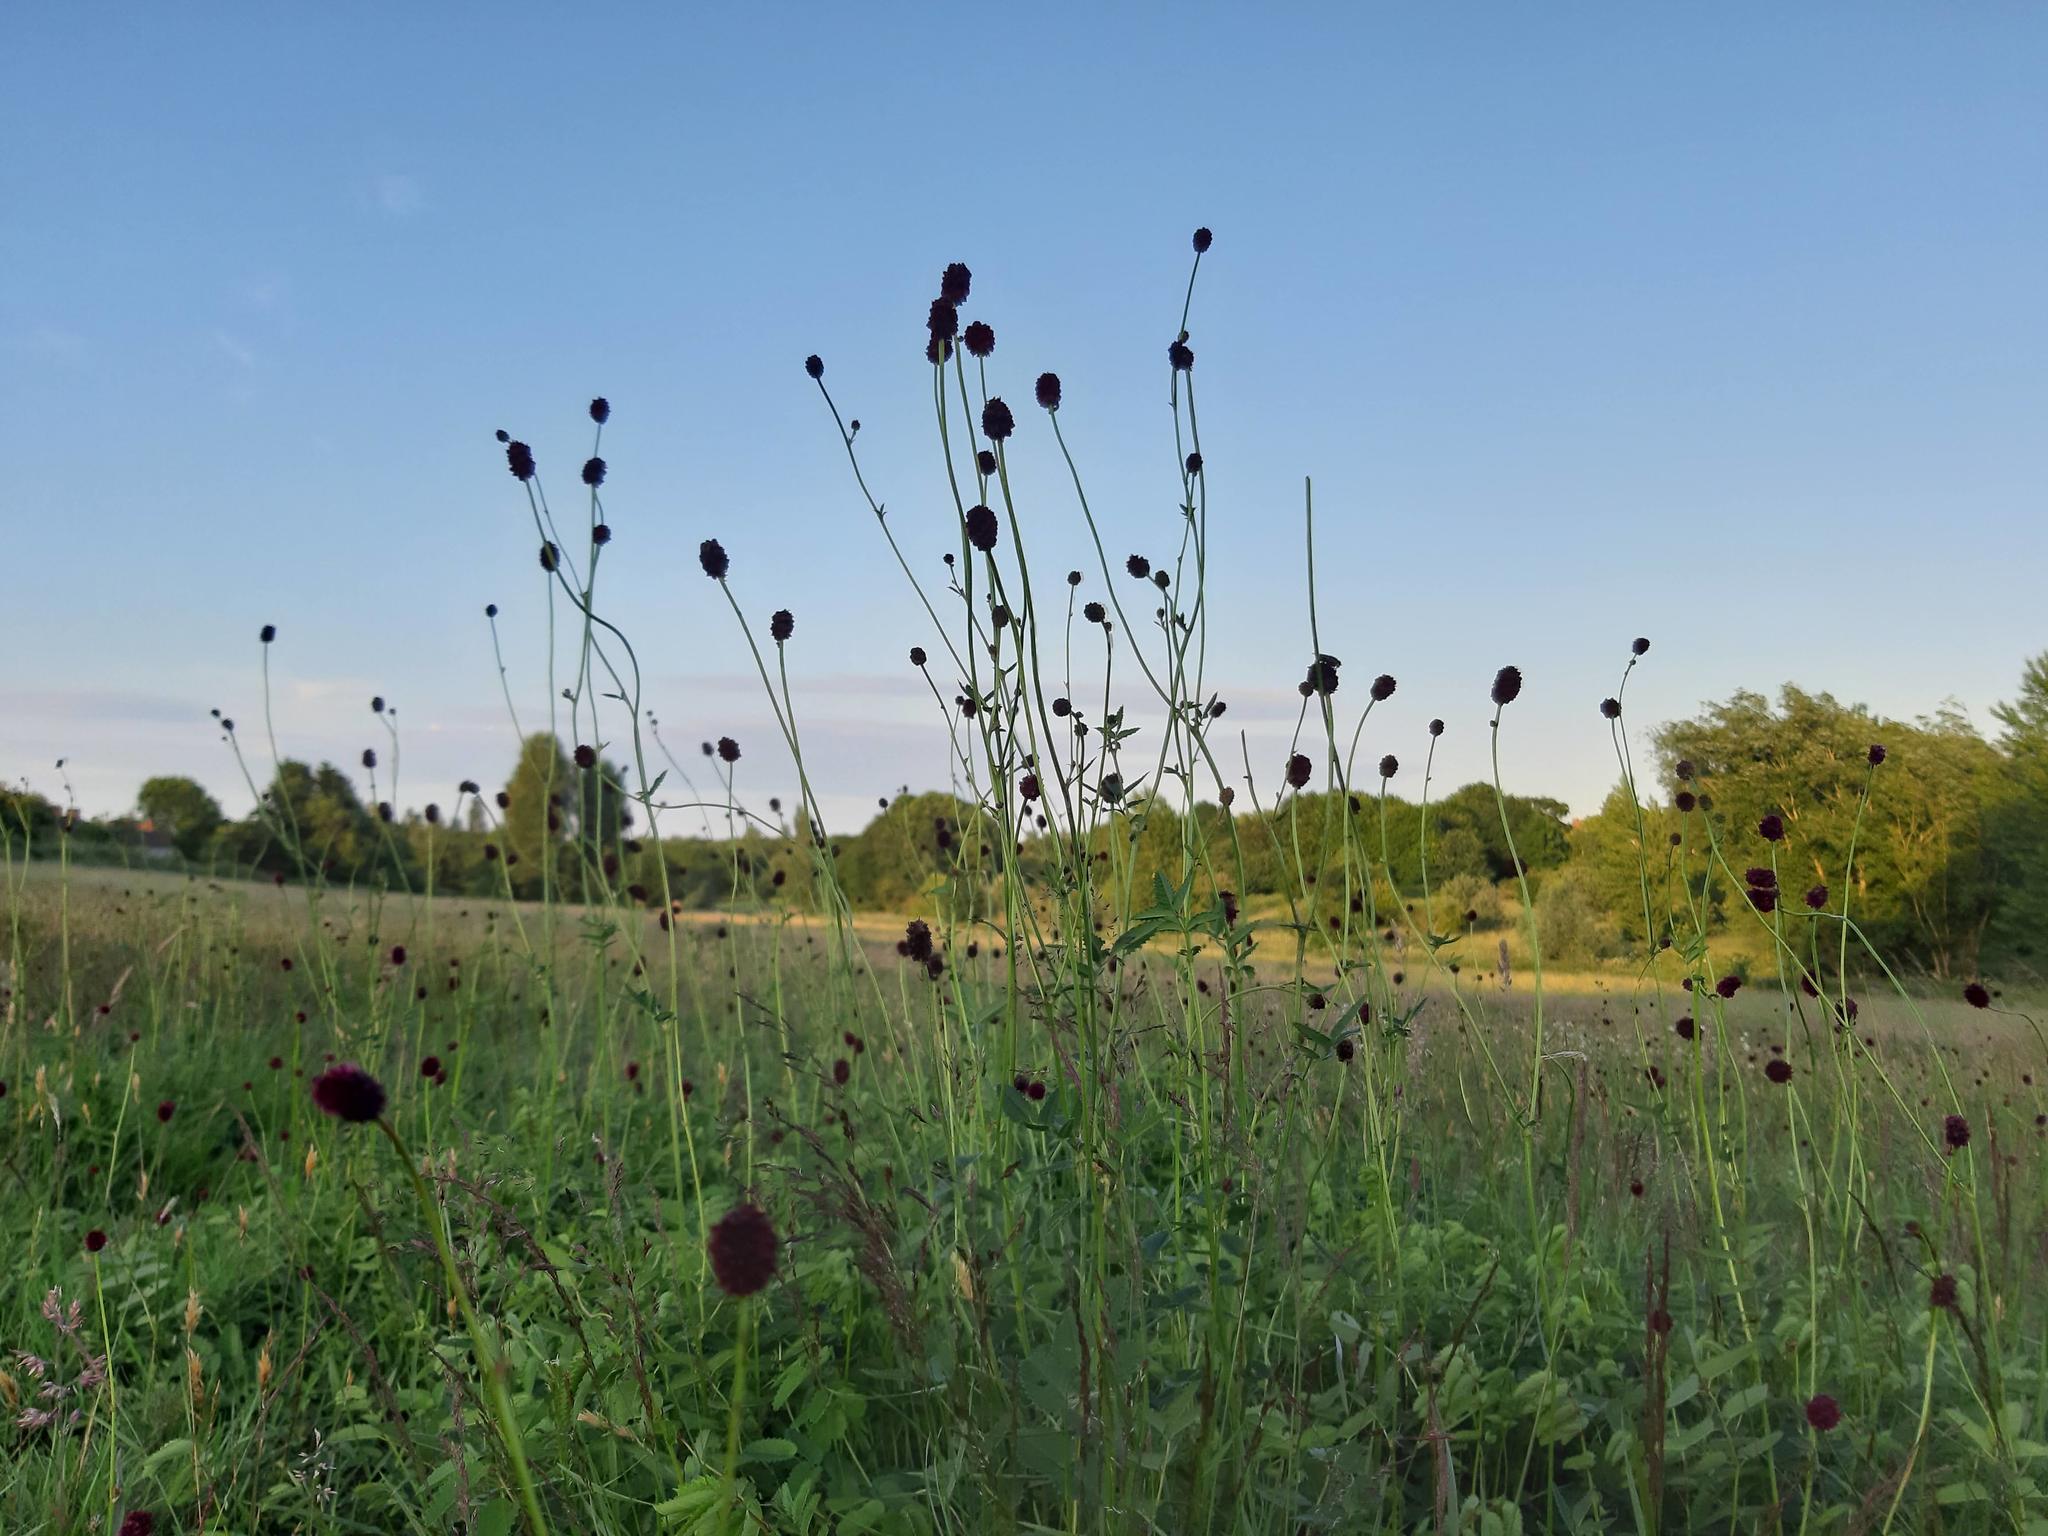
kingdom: Plantae
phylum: Tracheophyta
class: Magnoliopsida
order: Rosales
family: Rosaceae
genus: Sanguisorba
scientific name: Sanguisorba officinalis
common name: Great burnet
